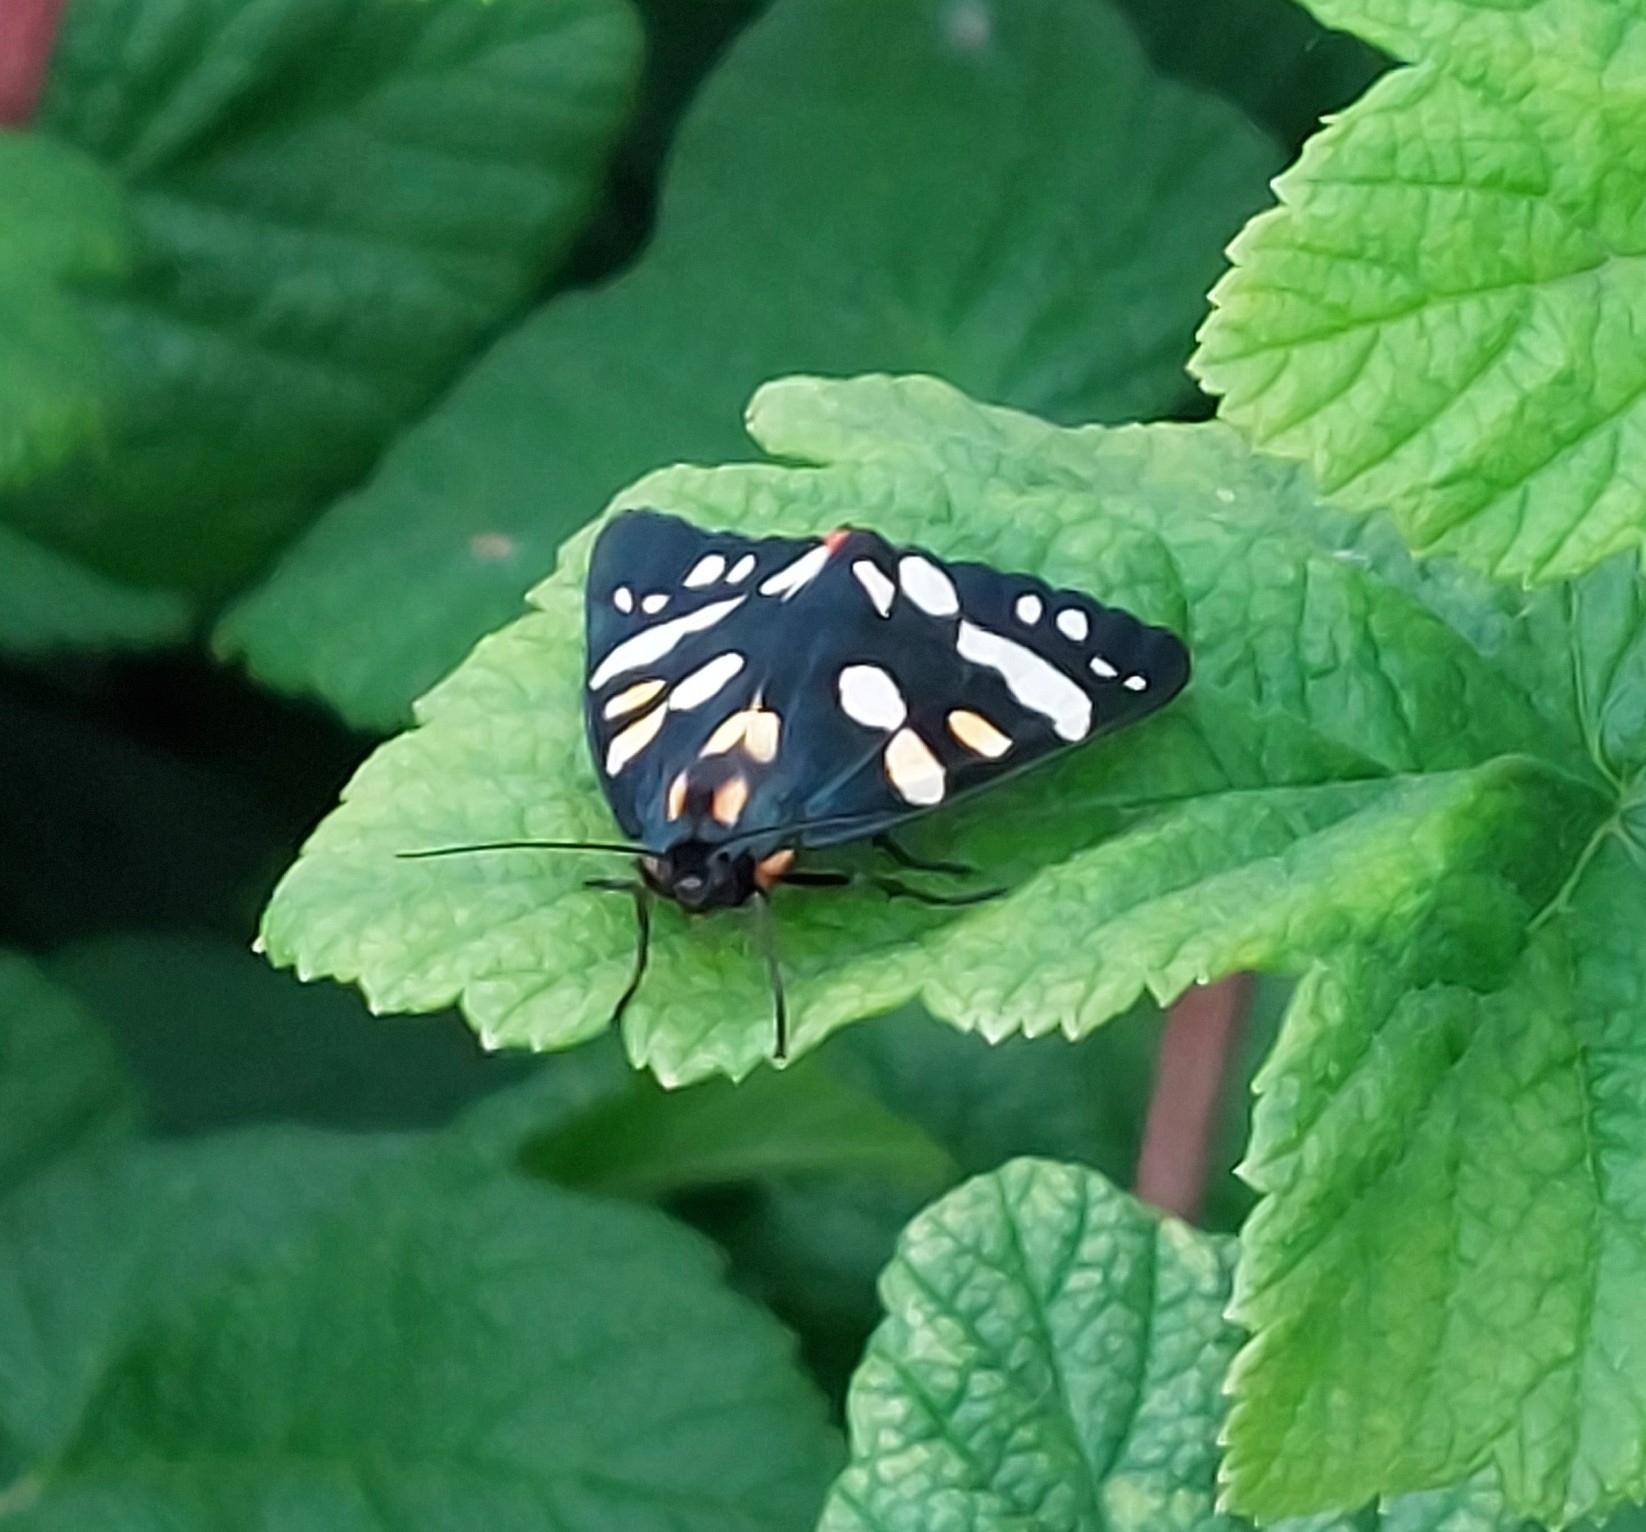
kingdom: Animalia
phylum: Arthropoda
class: Insecta
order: Lepidoptera
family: Erebidae
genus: Callimorpha
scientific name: Callimorpha dominula
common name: Scarlet tiger
